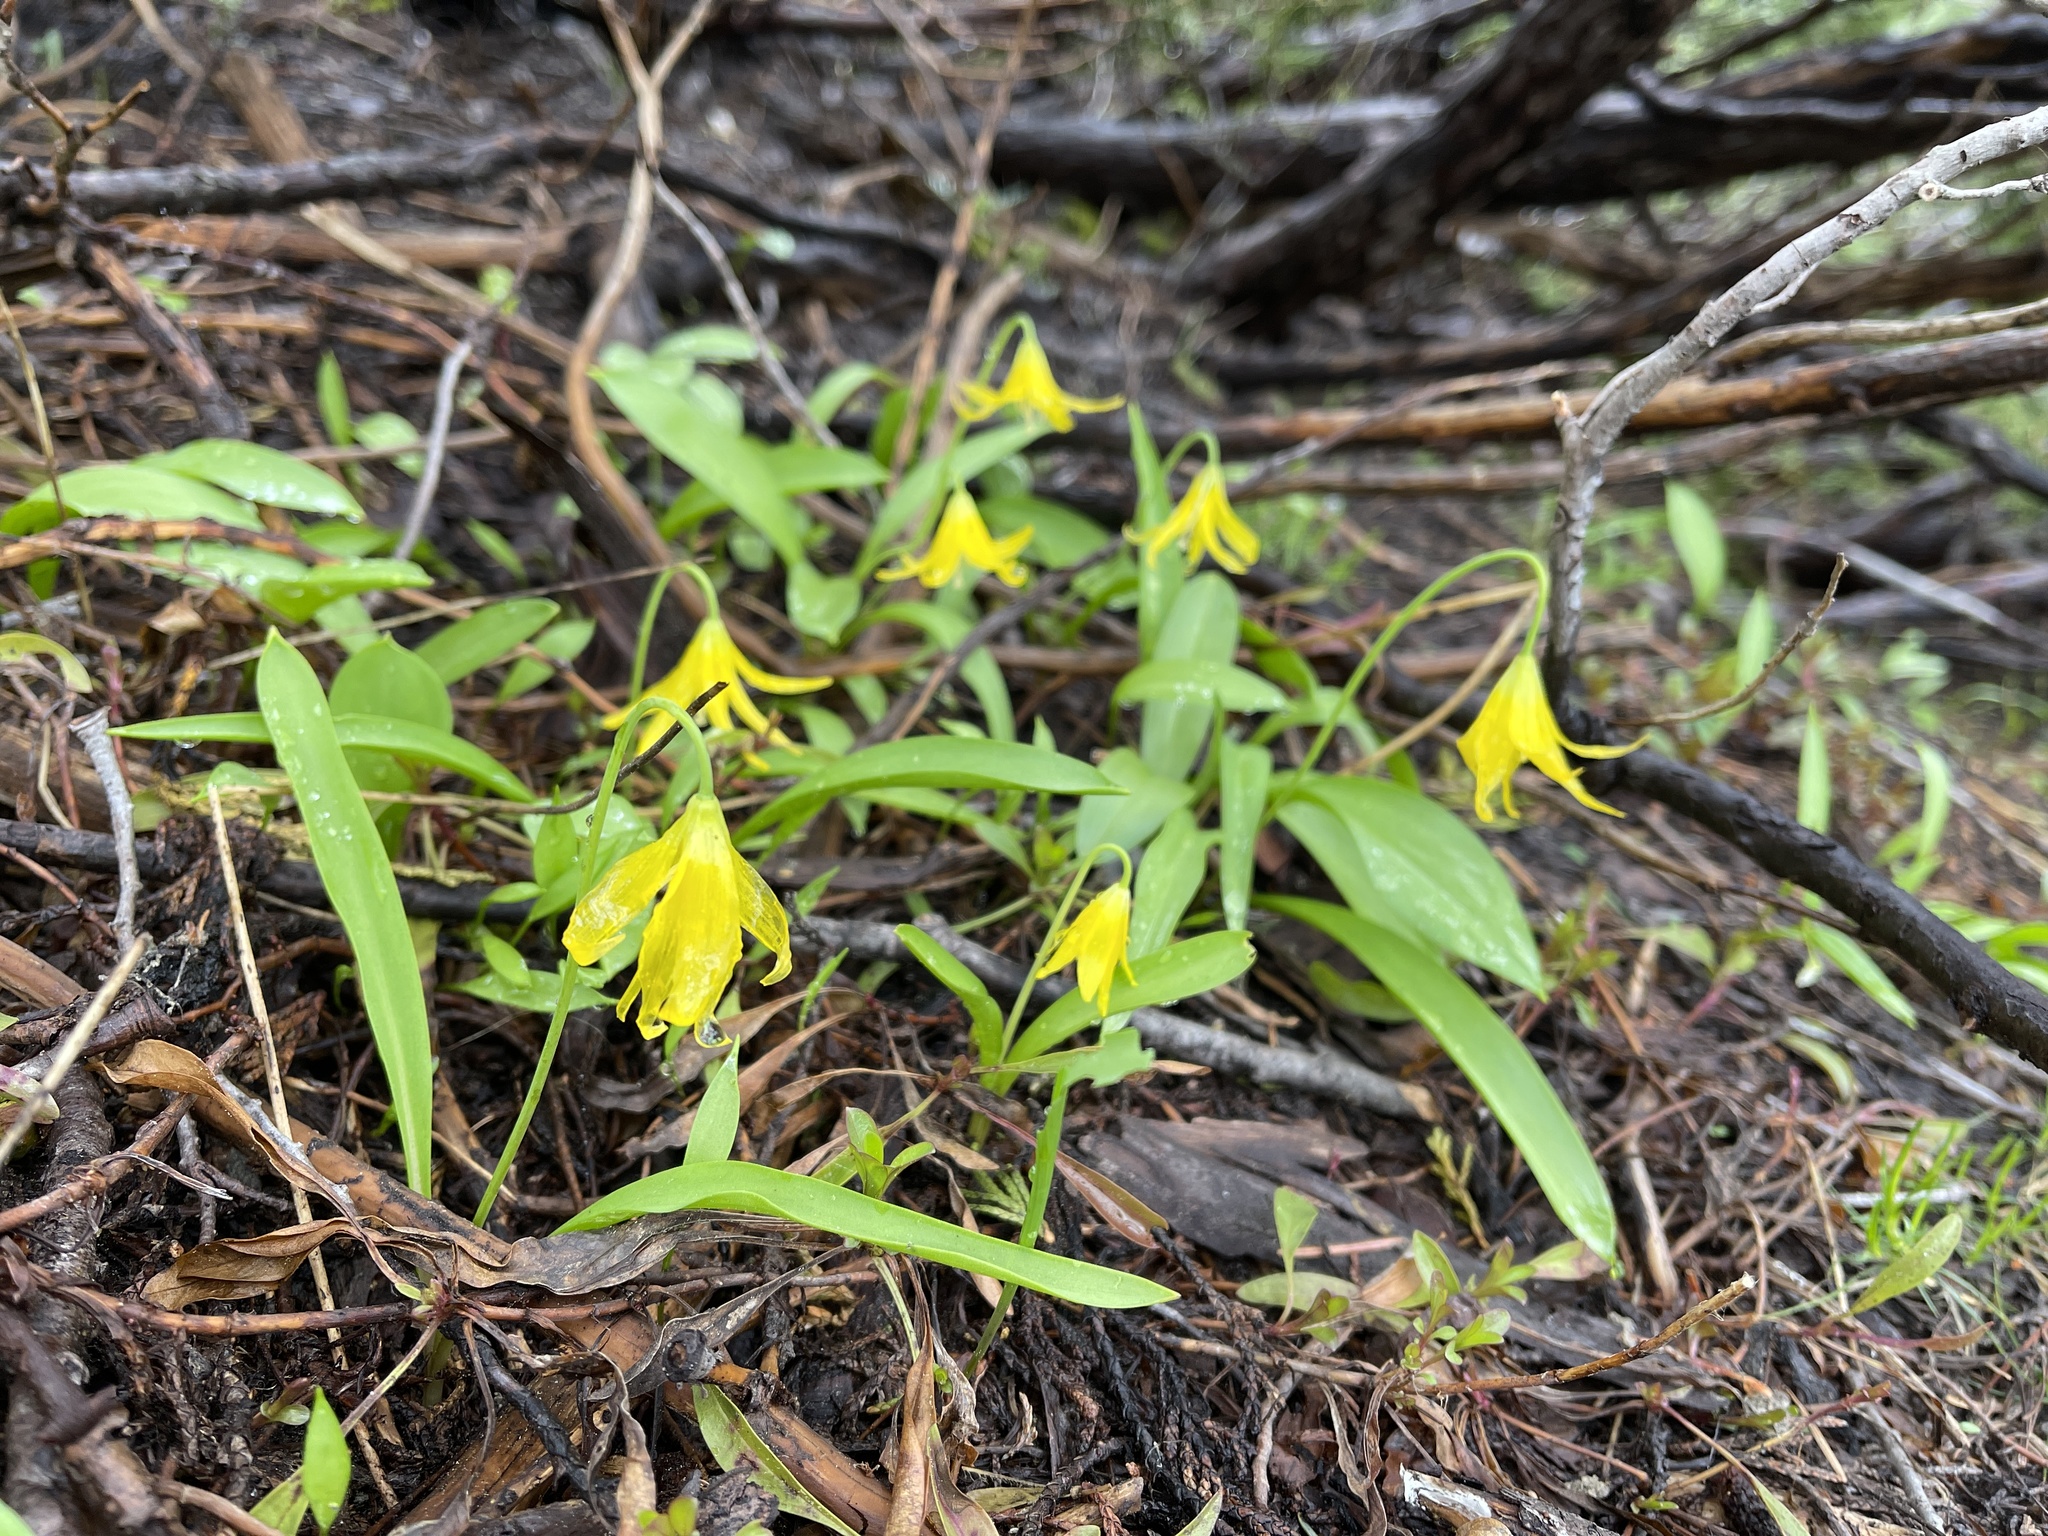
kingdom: Plantae
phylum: Tracheophyta
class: Liliopsida
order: Liliales
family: Liliaceae
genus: Erythronium
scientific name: Erythronium grandiflorum
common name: Avalanche-lily
